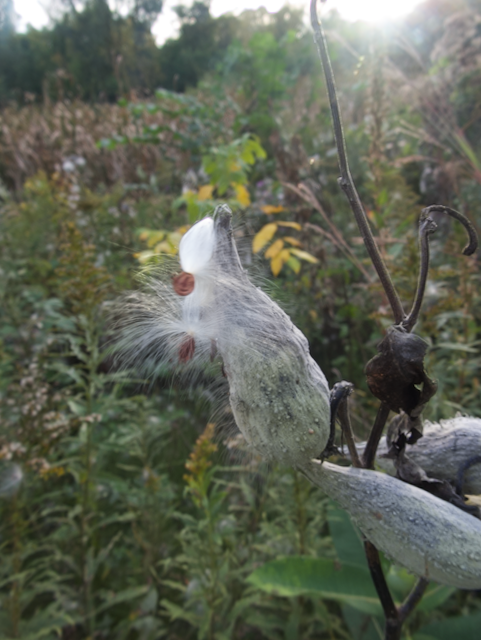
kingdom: Plantae
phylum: Tracheophyta
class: Magnoliopsida
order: Gentianales
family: Apocynaceae
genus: Asclepias
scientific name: Asclepias syriaca
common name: Common milkweed
